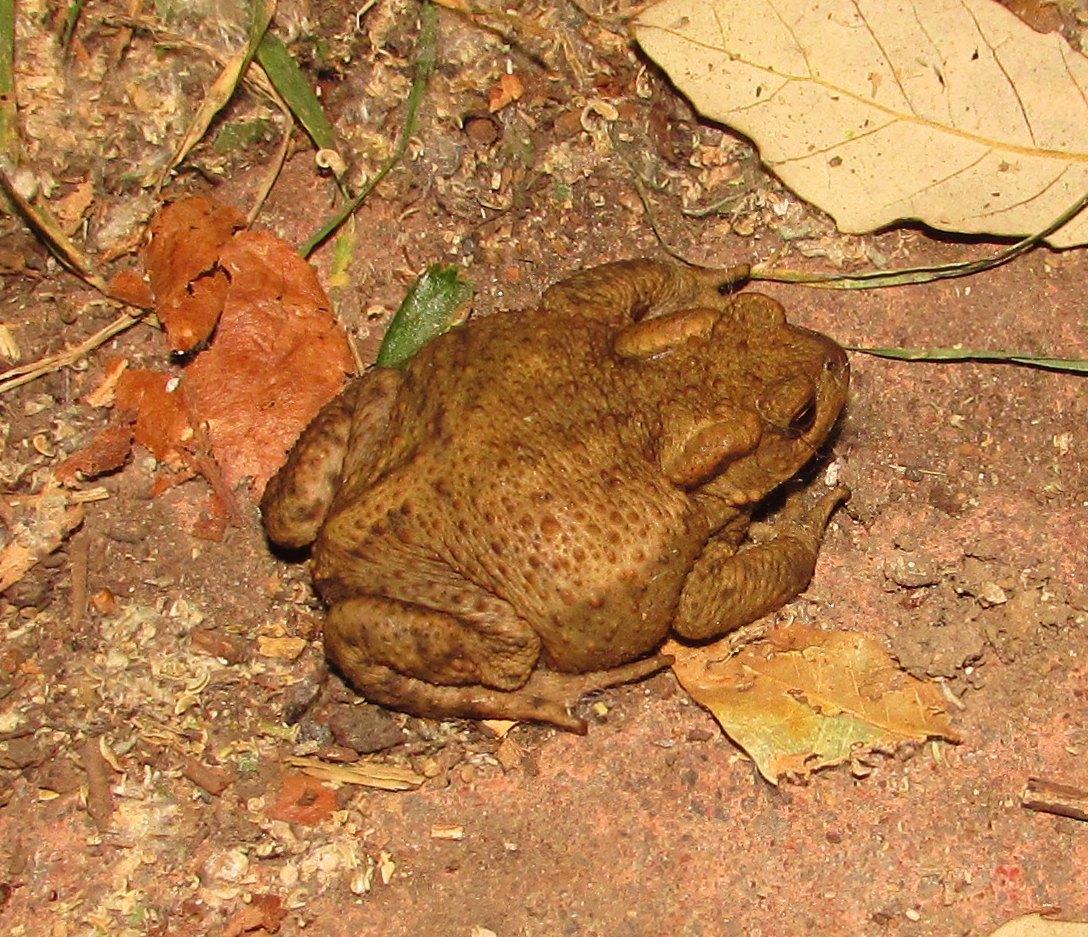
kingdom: Animalia
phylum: Chordata
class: Amphibia
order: Anura
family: Bufonidae
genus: Bufo
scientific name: Bufo bufo
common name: Common toad
